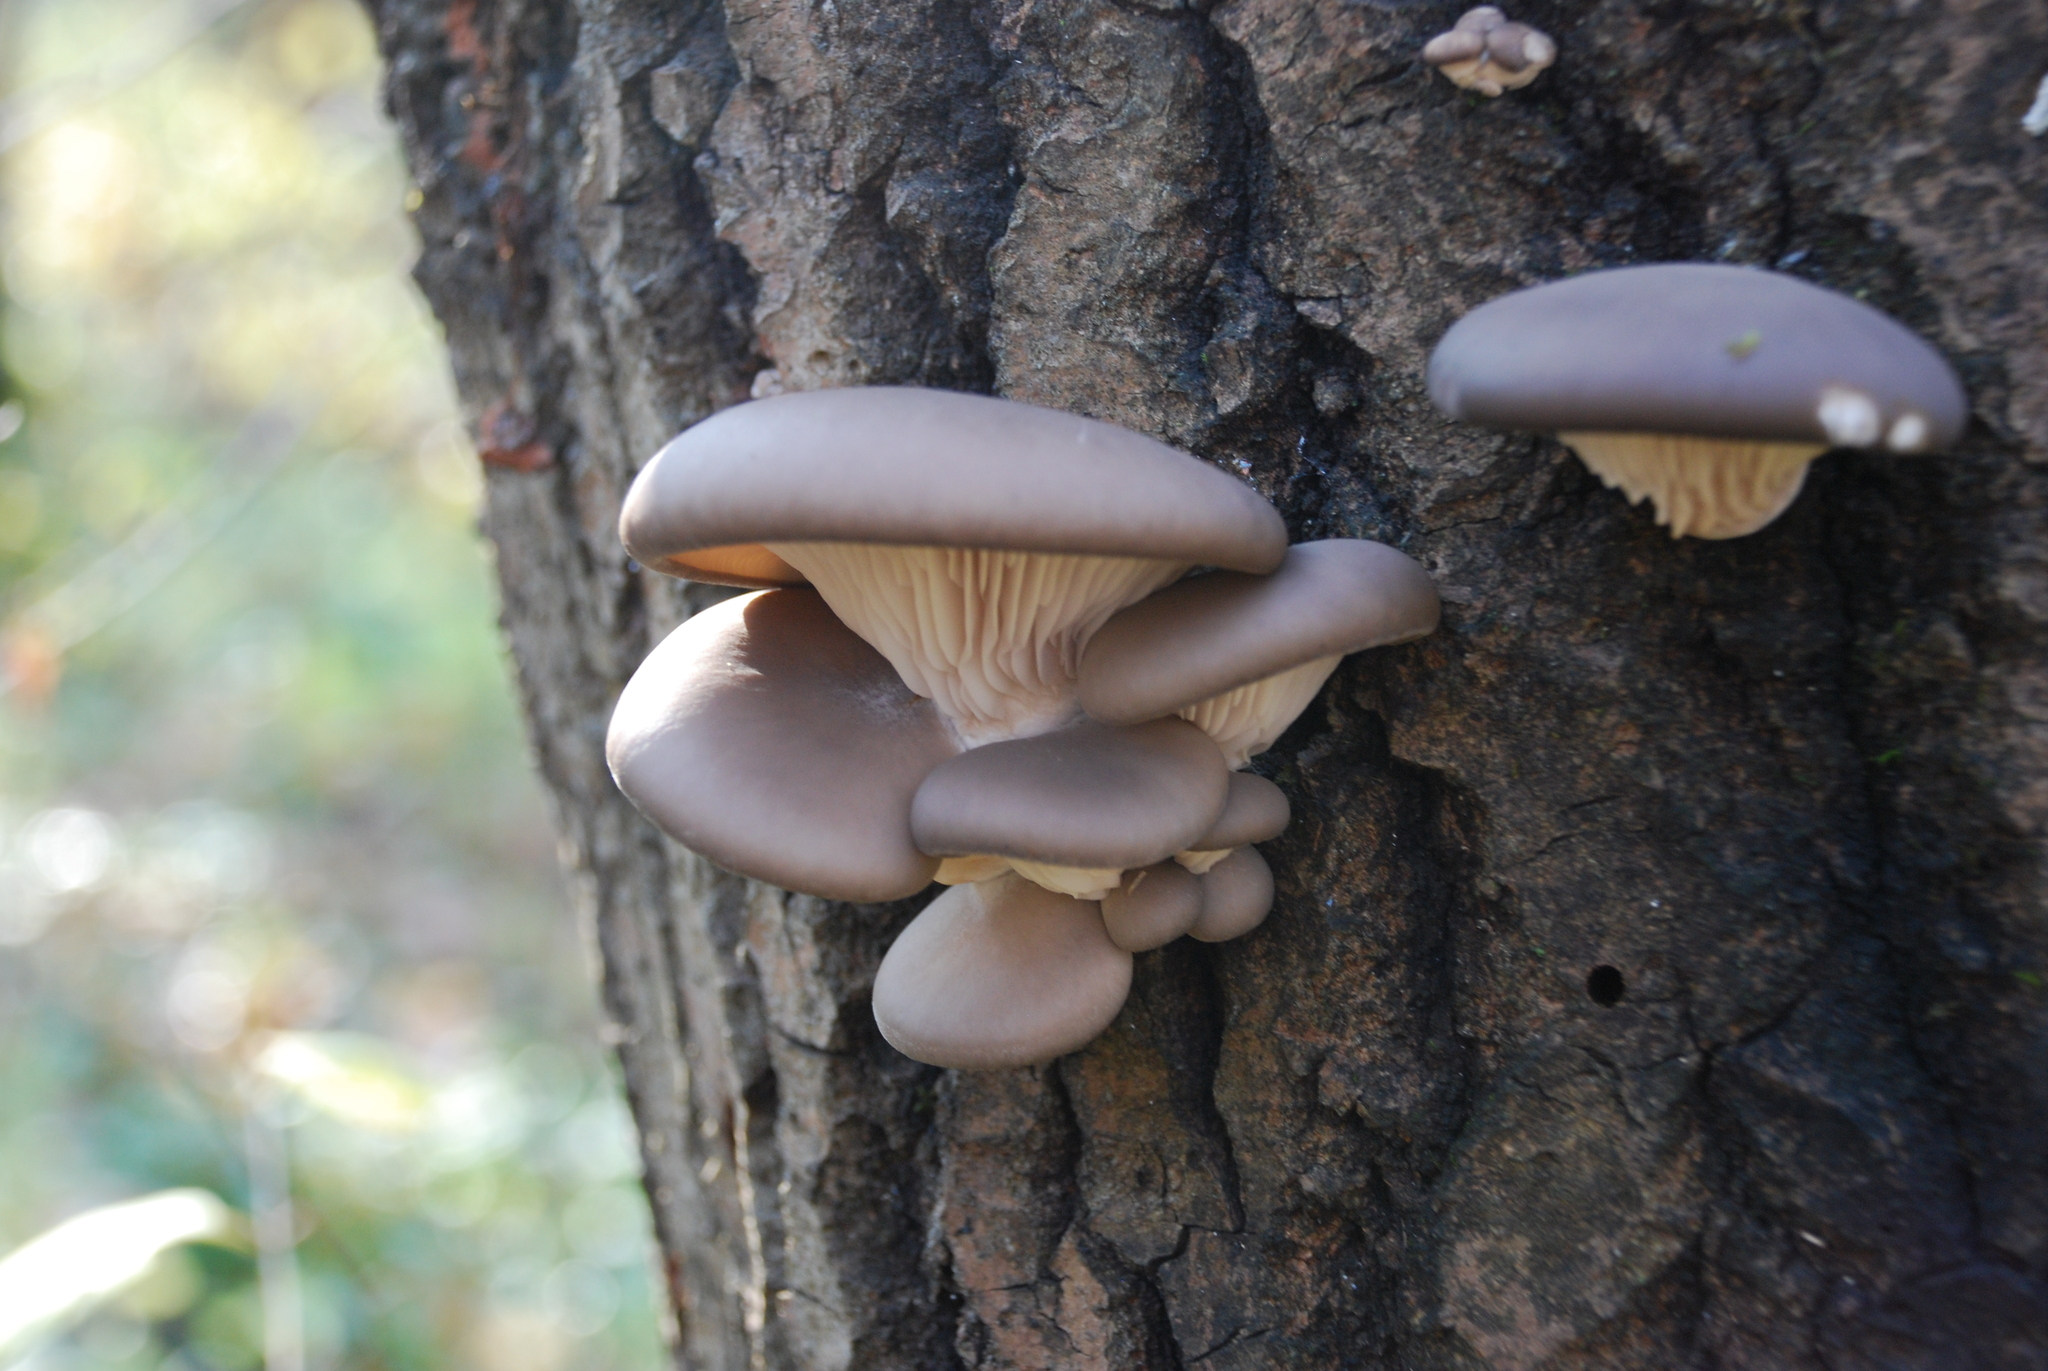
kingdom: Fungi
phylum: Basidiomycota
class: Agaricomycetes
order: Agaricales
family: Pleurotaceae
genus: Pleurotus
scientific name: Pleurotus ostreatus
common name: Oyster mushroom
